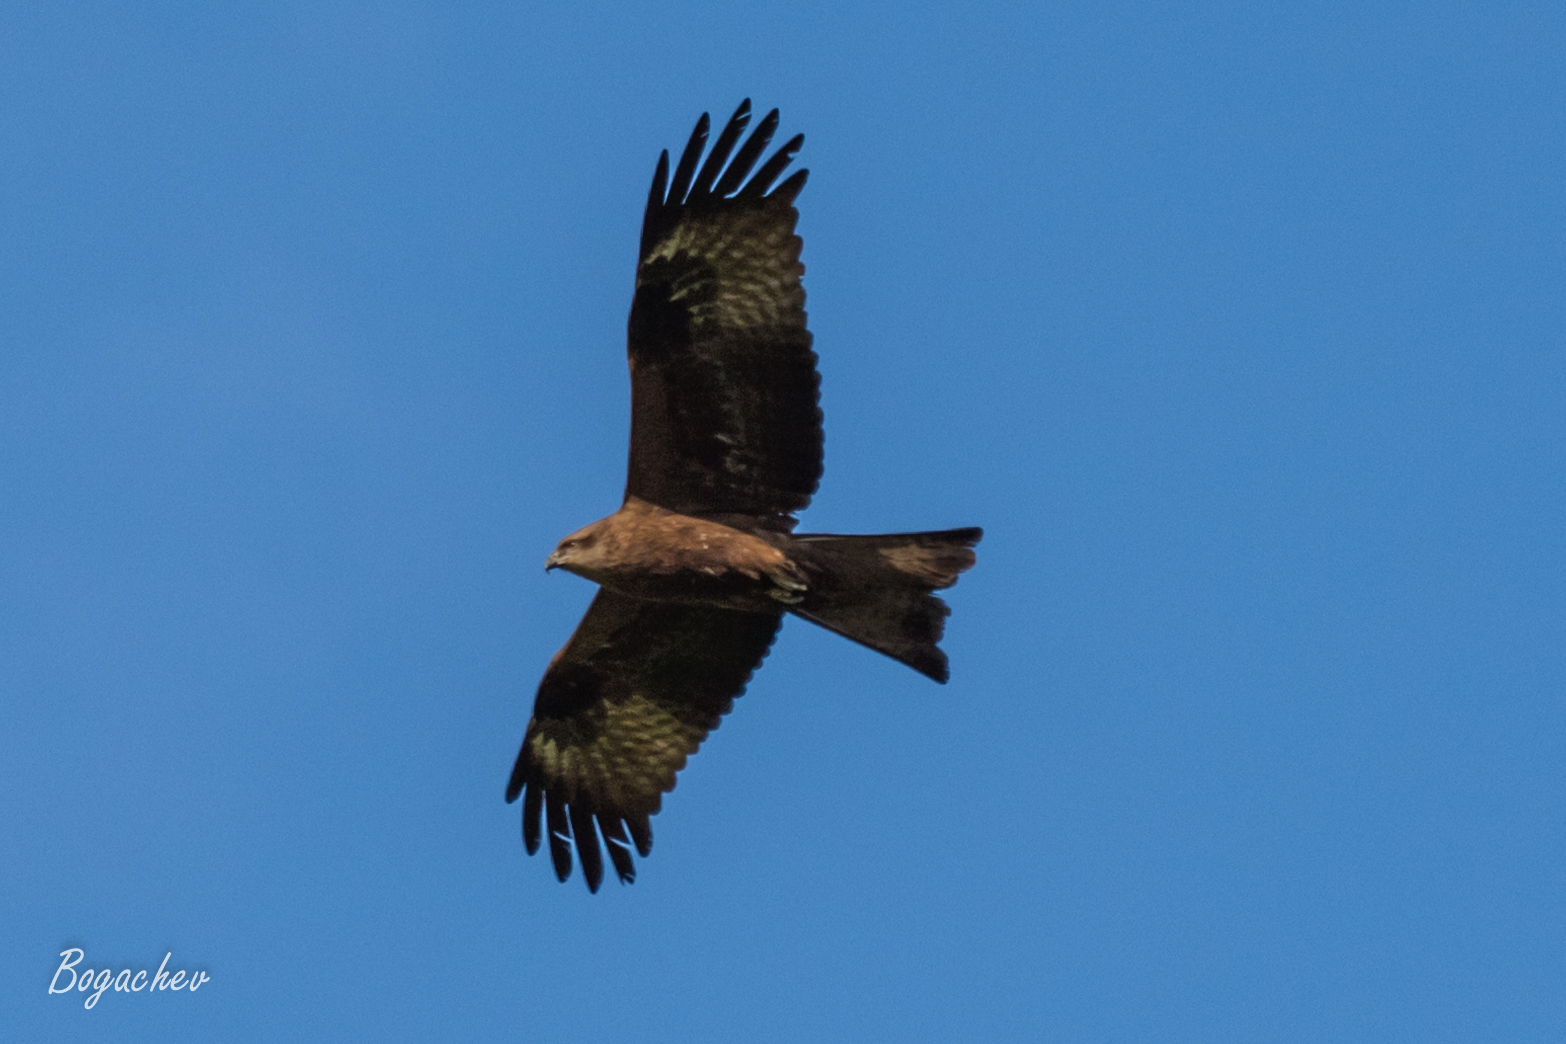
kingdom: Animalia
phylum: Chordata
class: Aves
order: Accipitriformes
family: Accipitridae
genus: Milvus
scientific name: Milvus migrans
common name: Black kite
